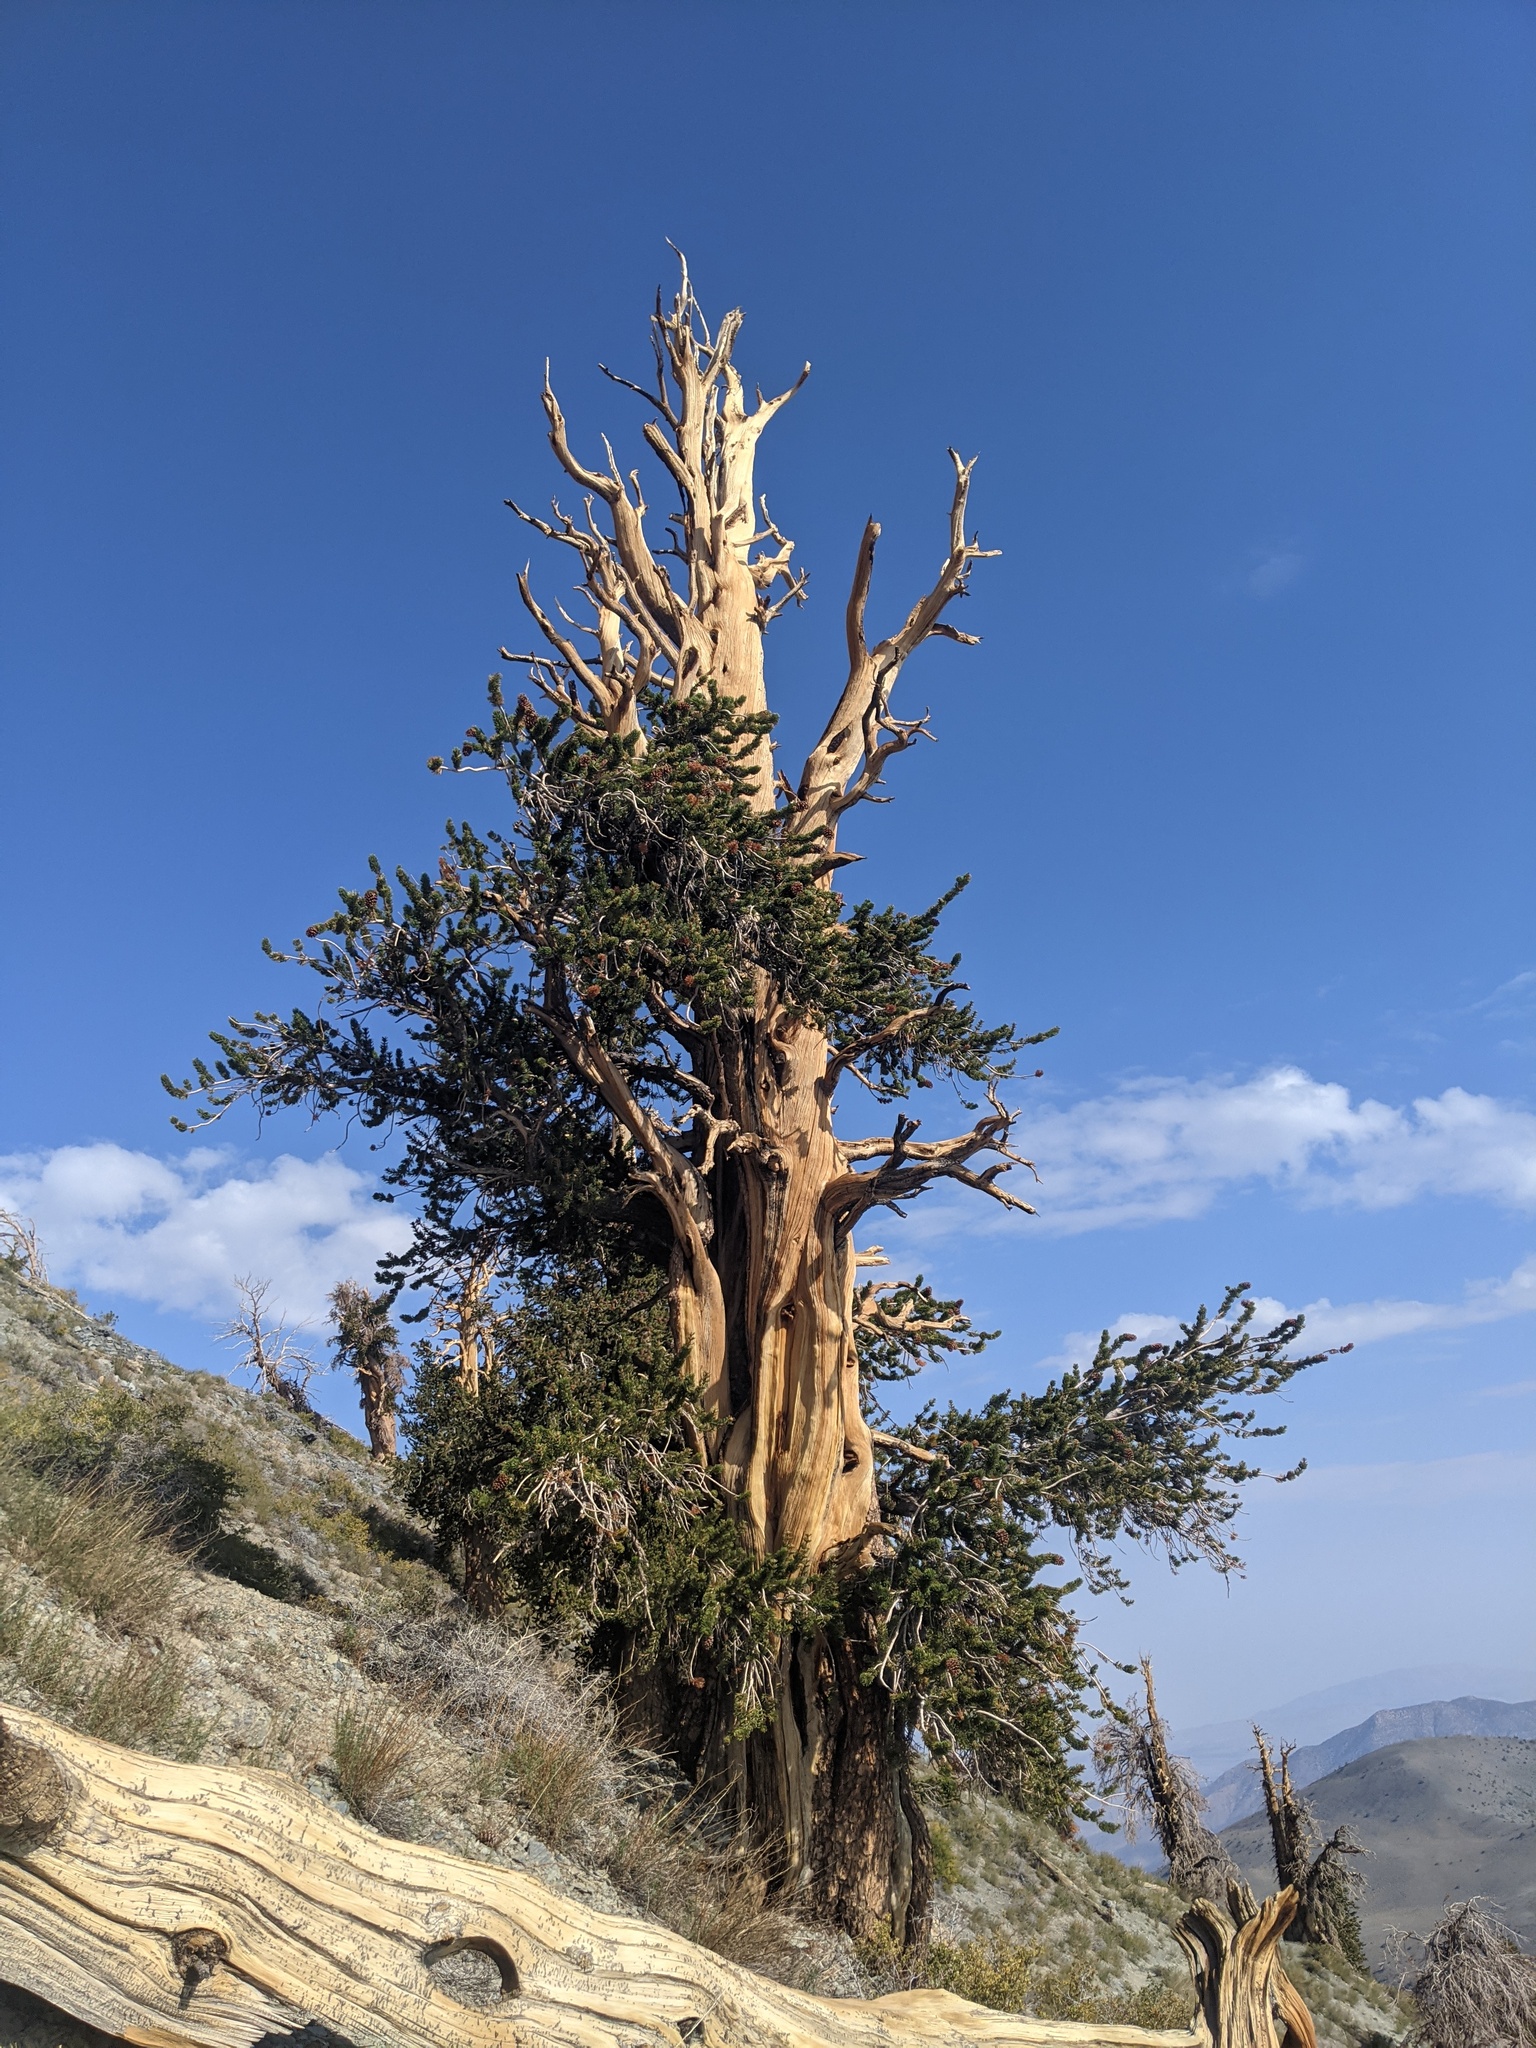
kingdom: Plantae
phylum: Tracheophyta
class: Pinopsida
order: Pinales
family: Pinaceae
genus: Pinus
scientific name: Pinus longaeva
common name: Intermountain bristlecone pine
